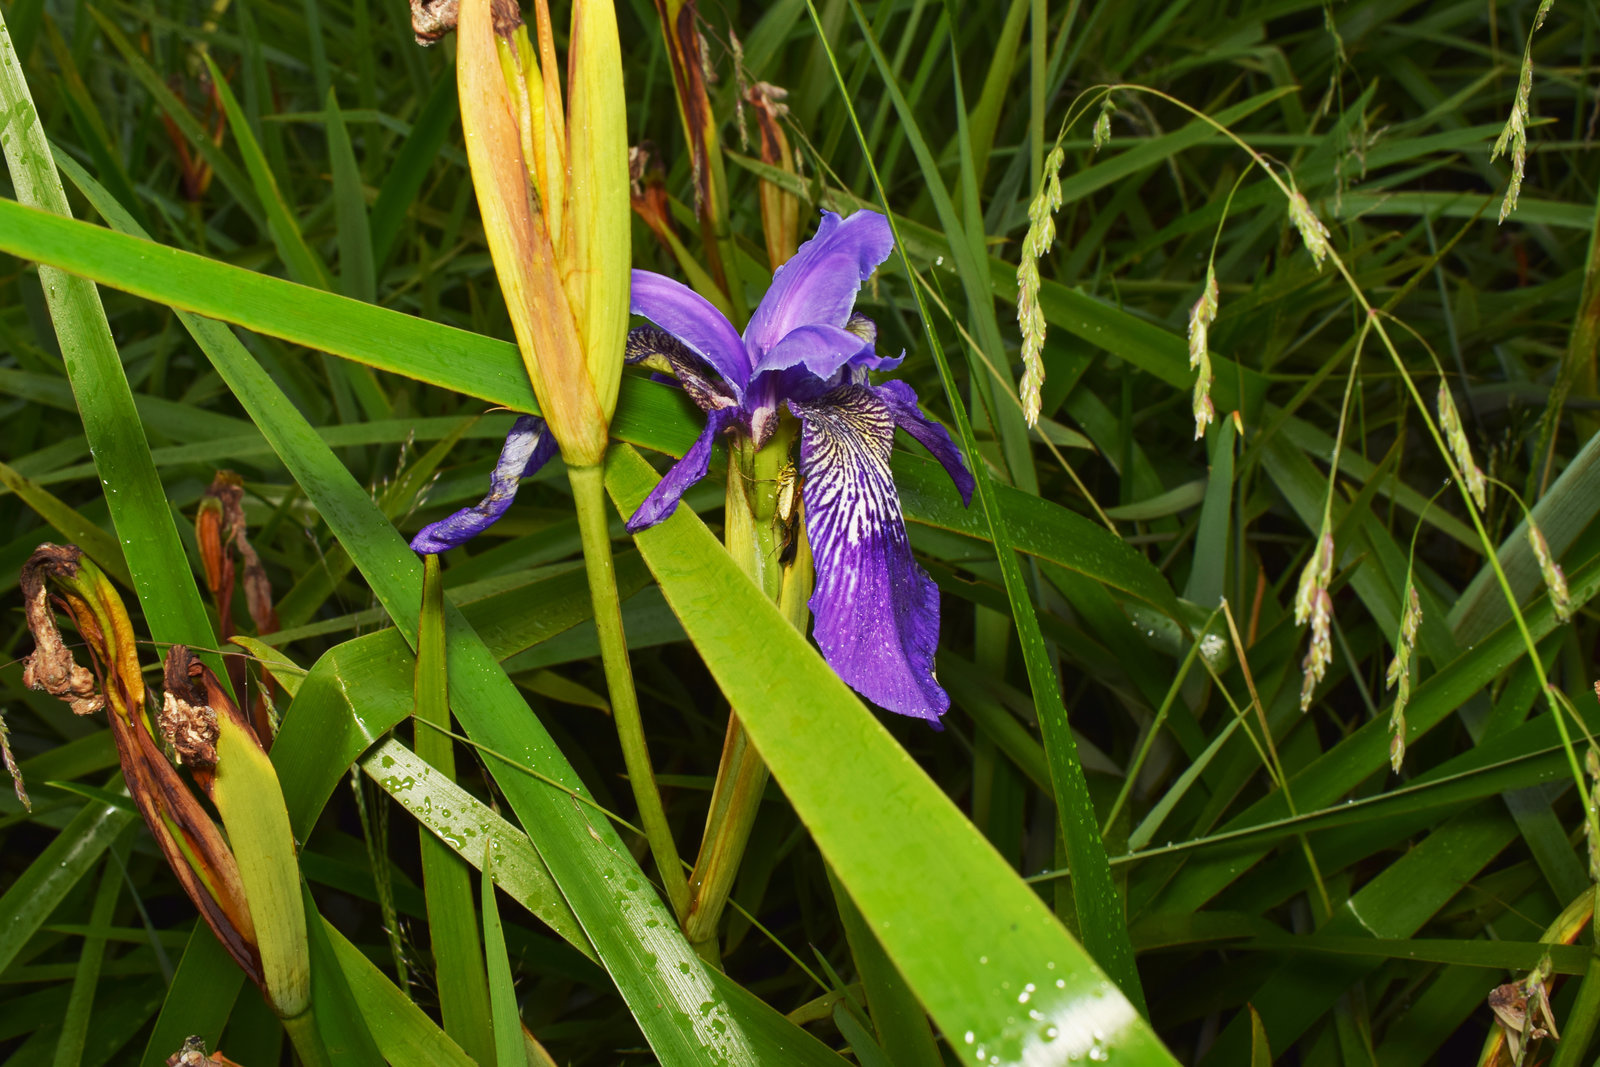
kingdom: Plantae
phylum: Tracheophyta
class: Liliopsida
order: Asparagales
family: Iridaceae
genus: Iris
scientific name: Iris clarkei
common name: Tibet iris
